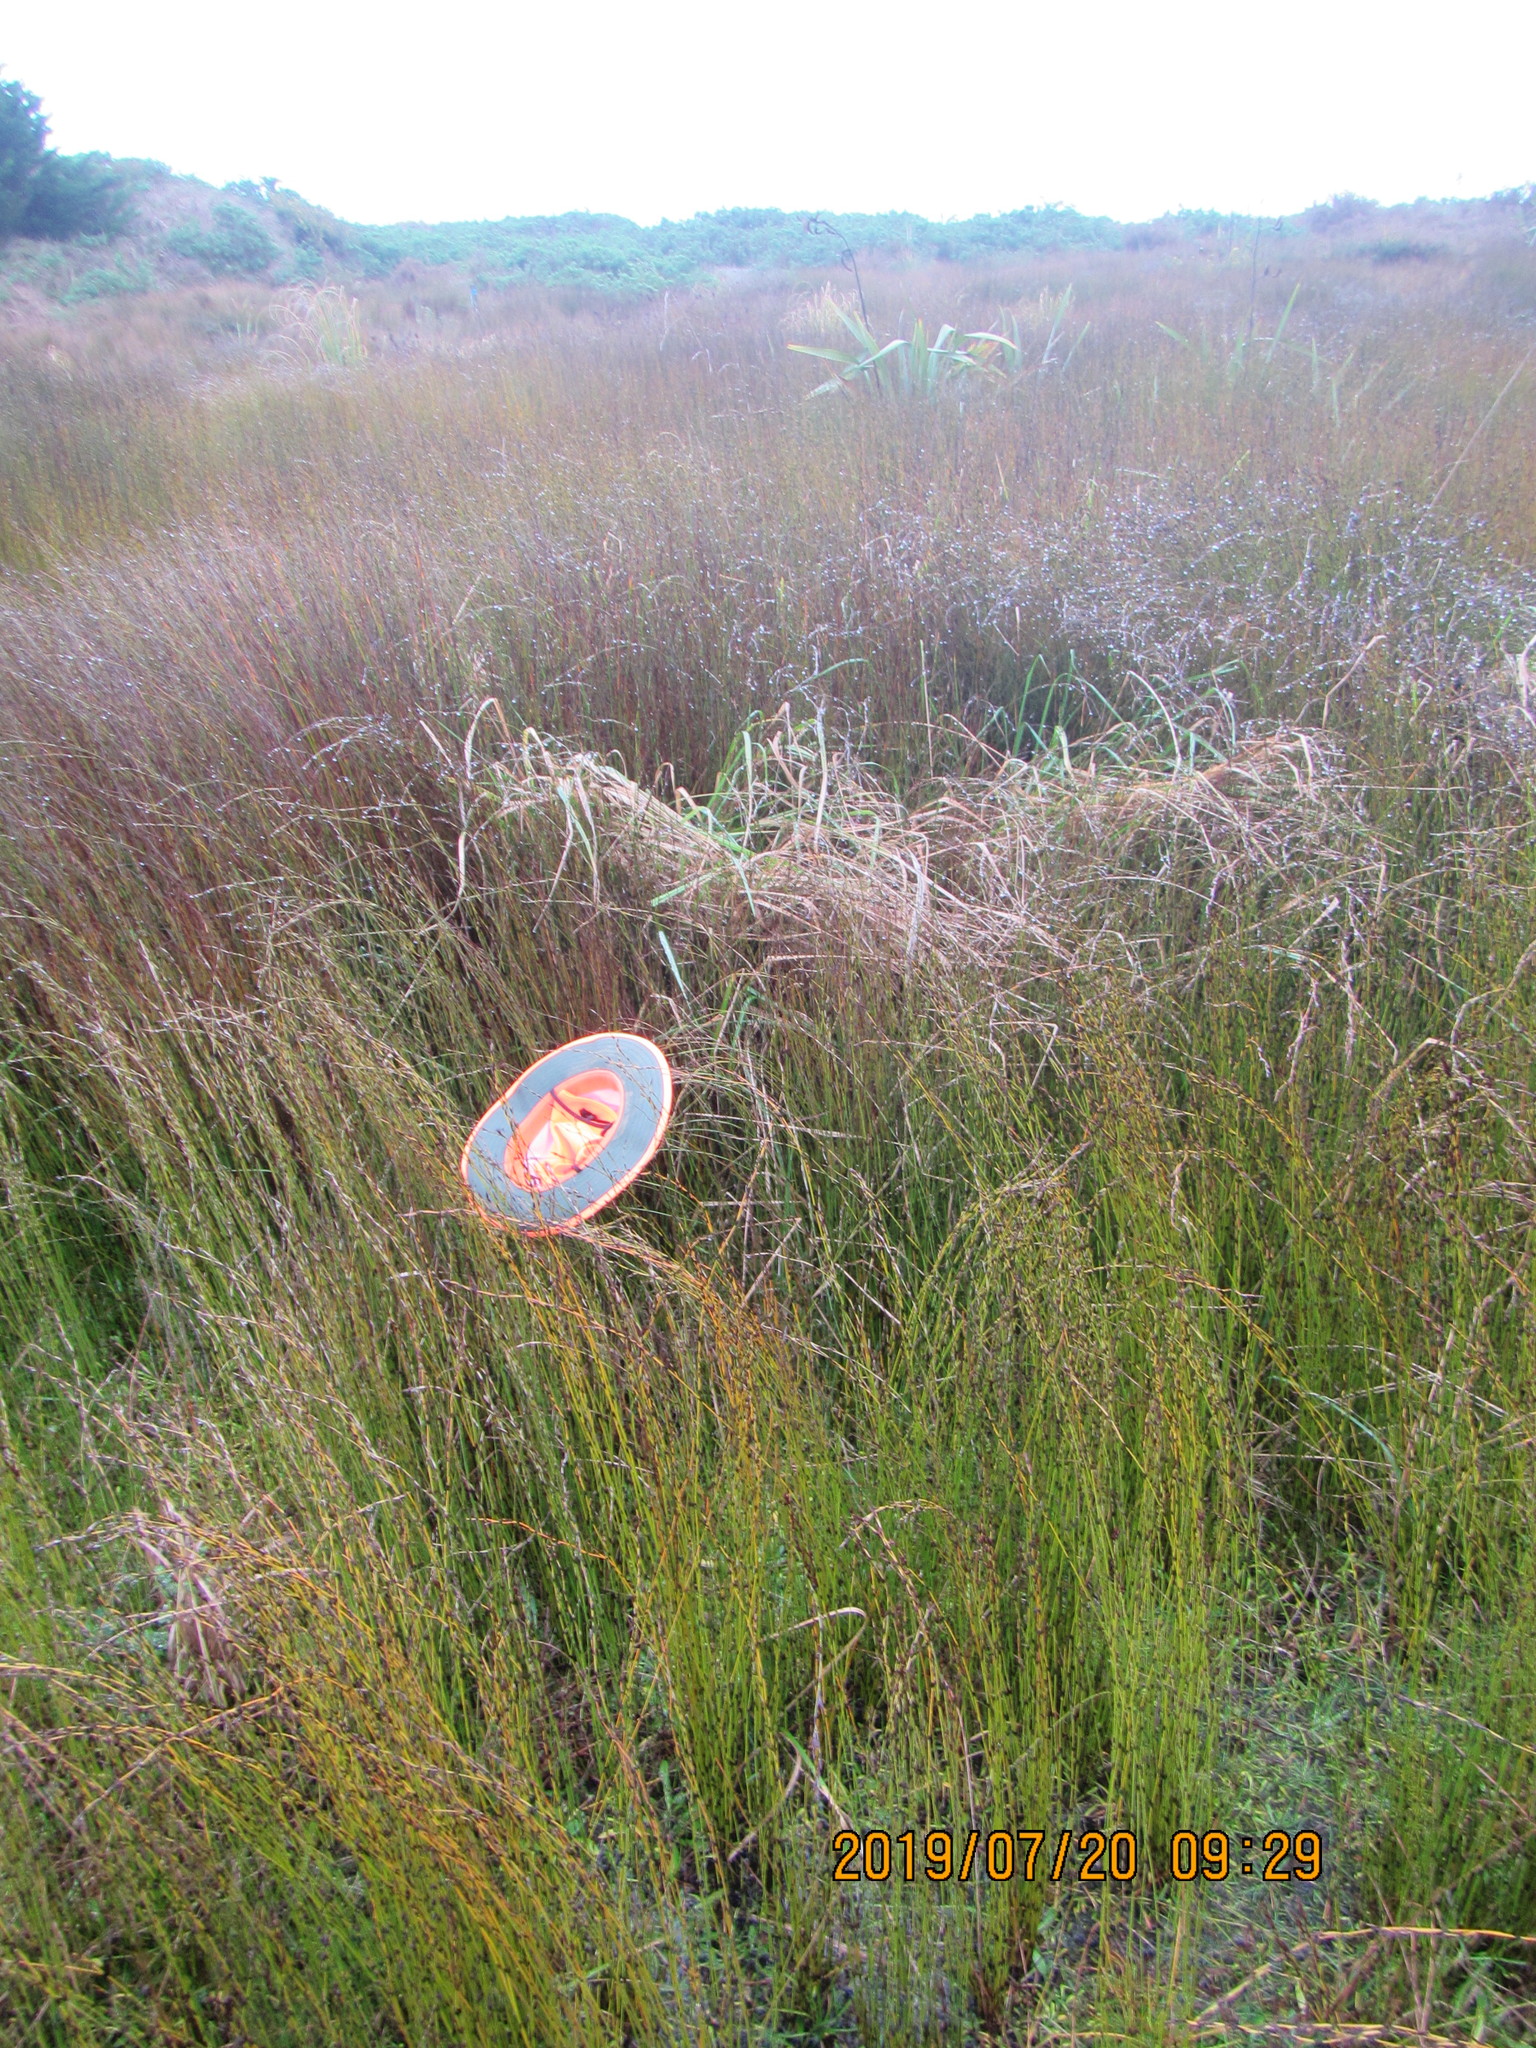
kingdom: Plantae
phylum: Tracheophyta
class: Magnoliopsida
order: Asterales
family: Goodeniaceae
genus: Goodenia
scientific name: Goodenia radicans
